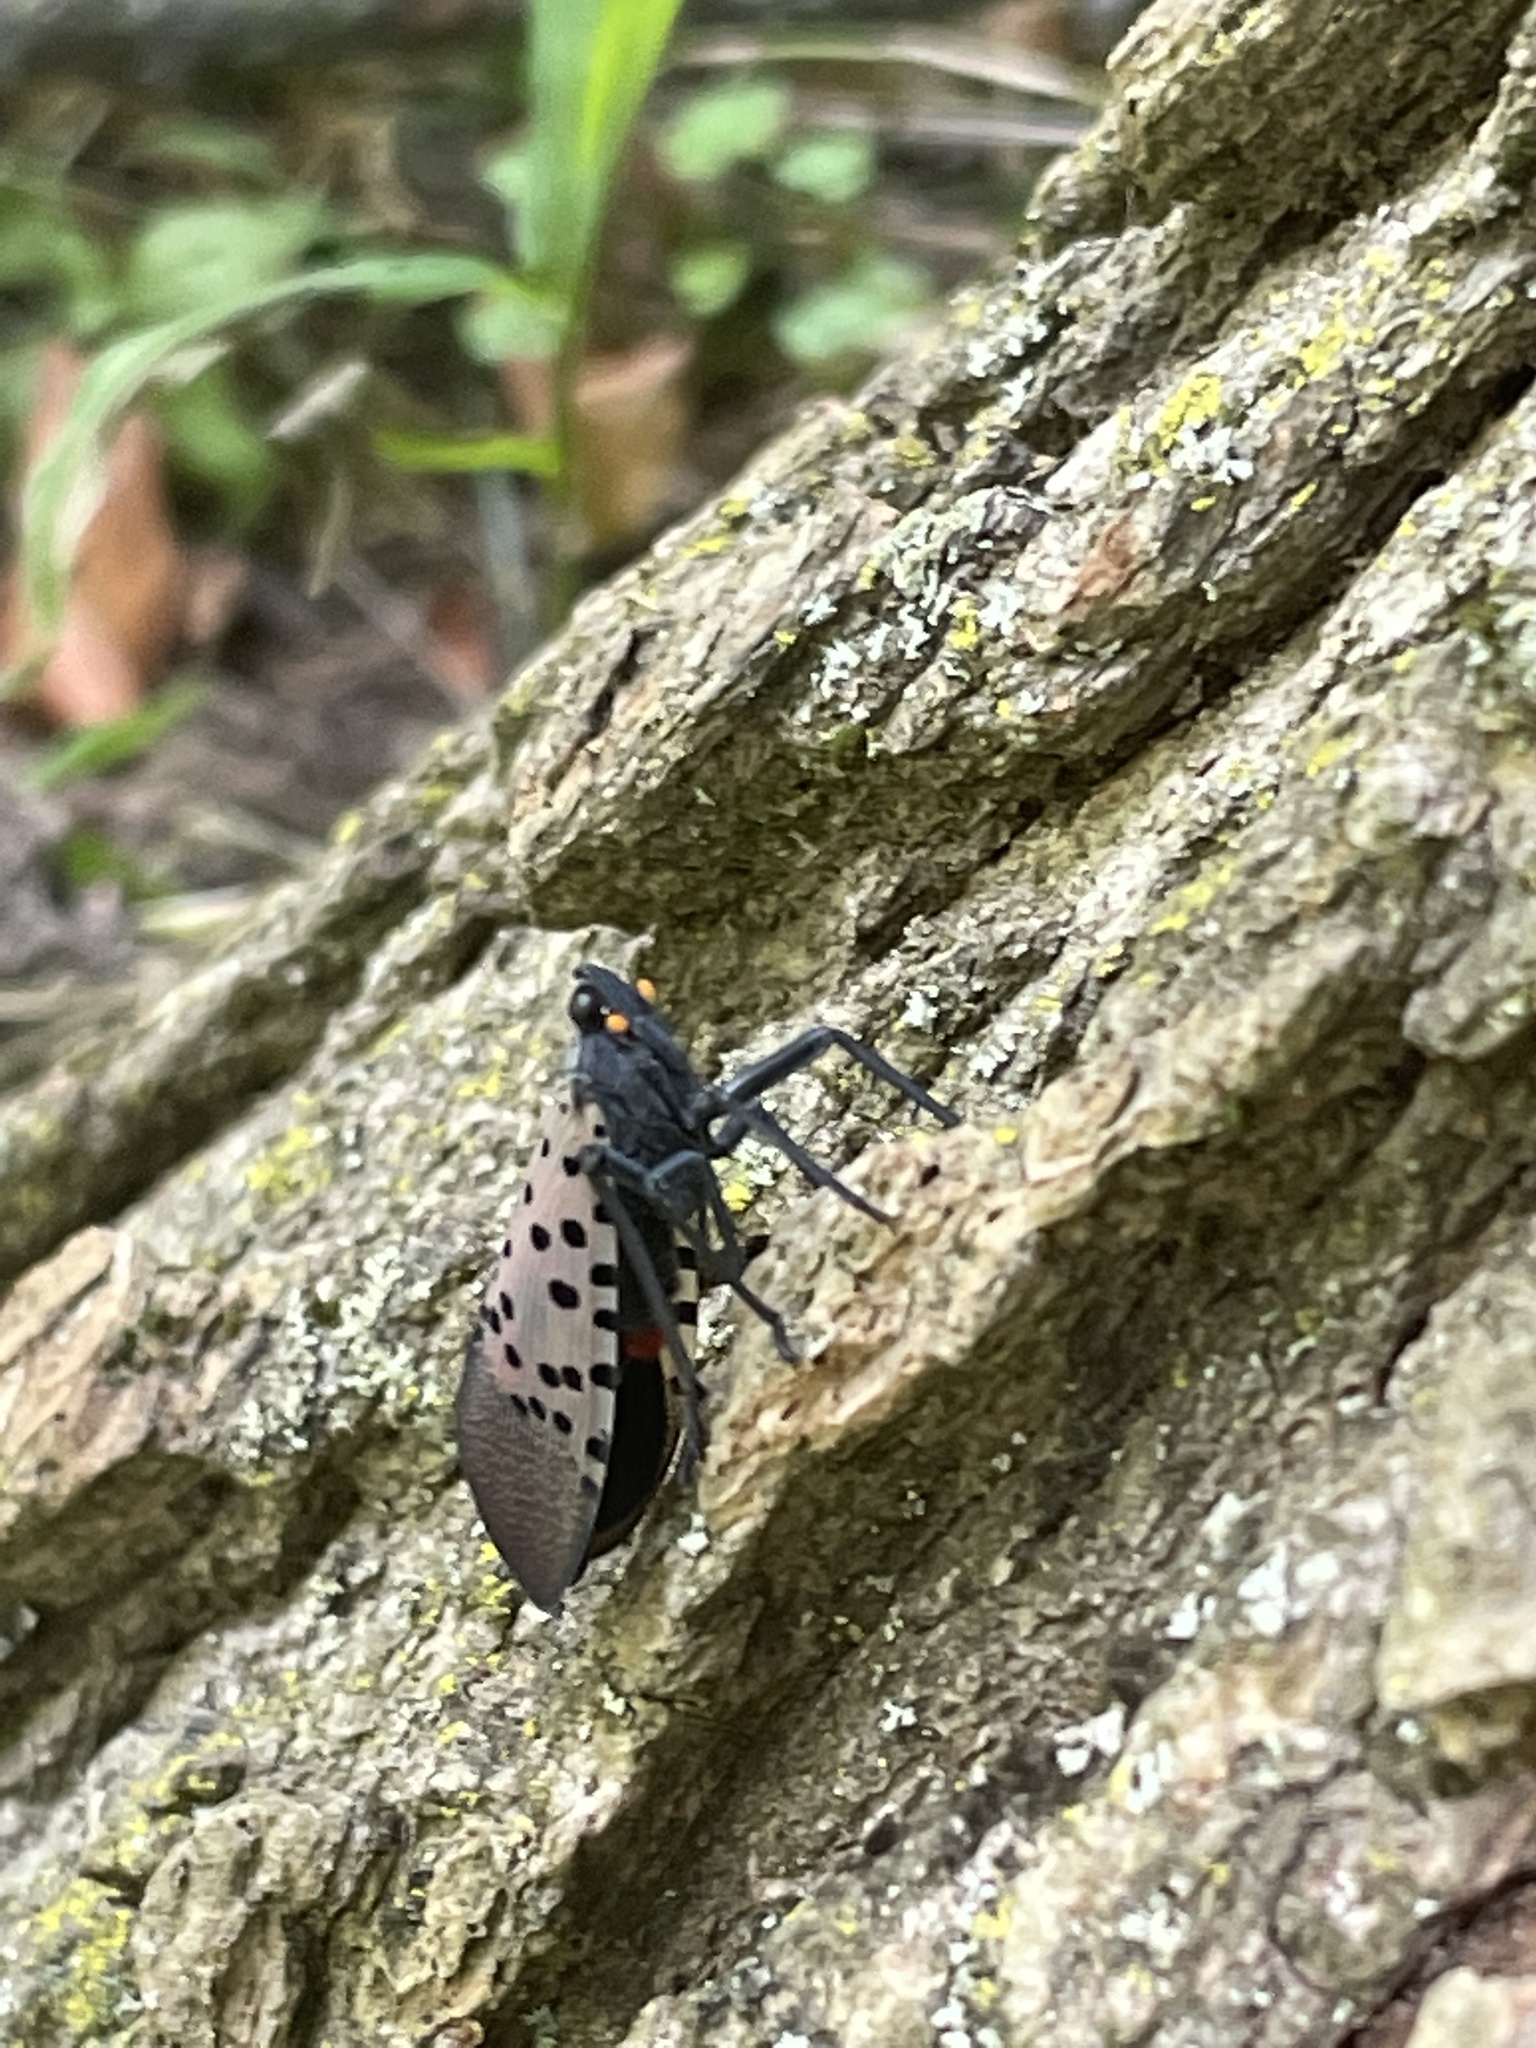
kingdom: Animalia
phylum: Arthropoda
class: Insecta
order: Hemiptera
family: Fulgoridae
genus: Lycorma
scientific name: Lycorma delicatula
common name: Spotted lanternfly
